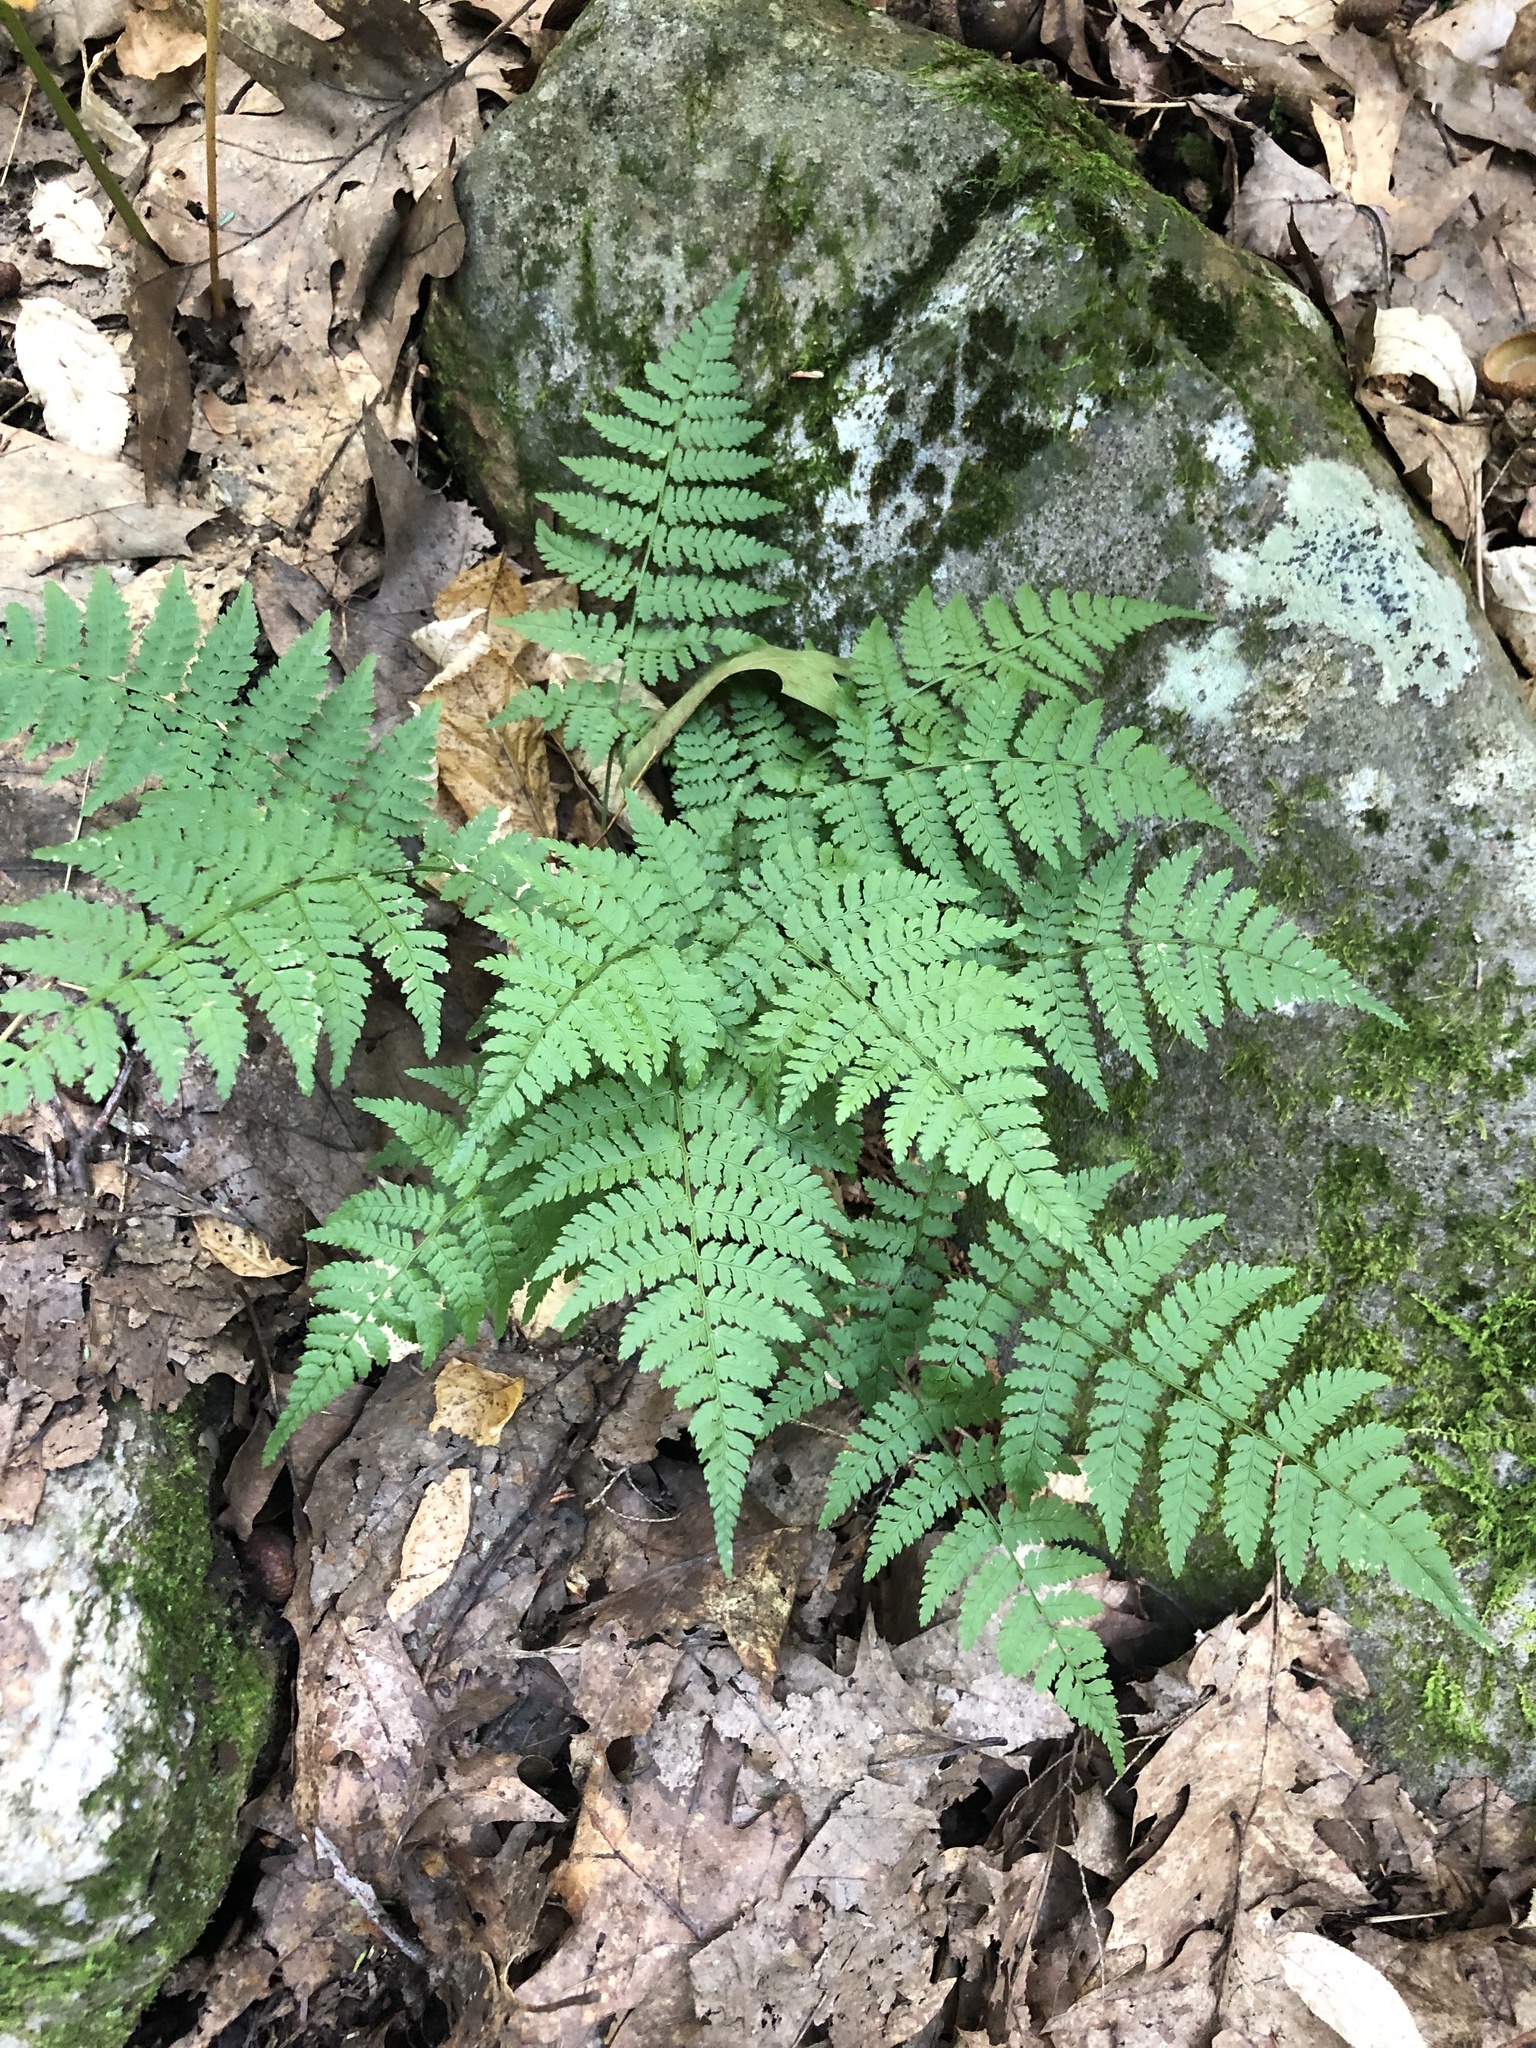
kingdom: Plantae
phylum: Tracheophyta
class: Polypodiopsida
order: Polypodiales
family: Dryopteridaceae
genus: Dryopteris
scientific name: Dryopteris intermedia
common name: Evergreen wood fern
